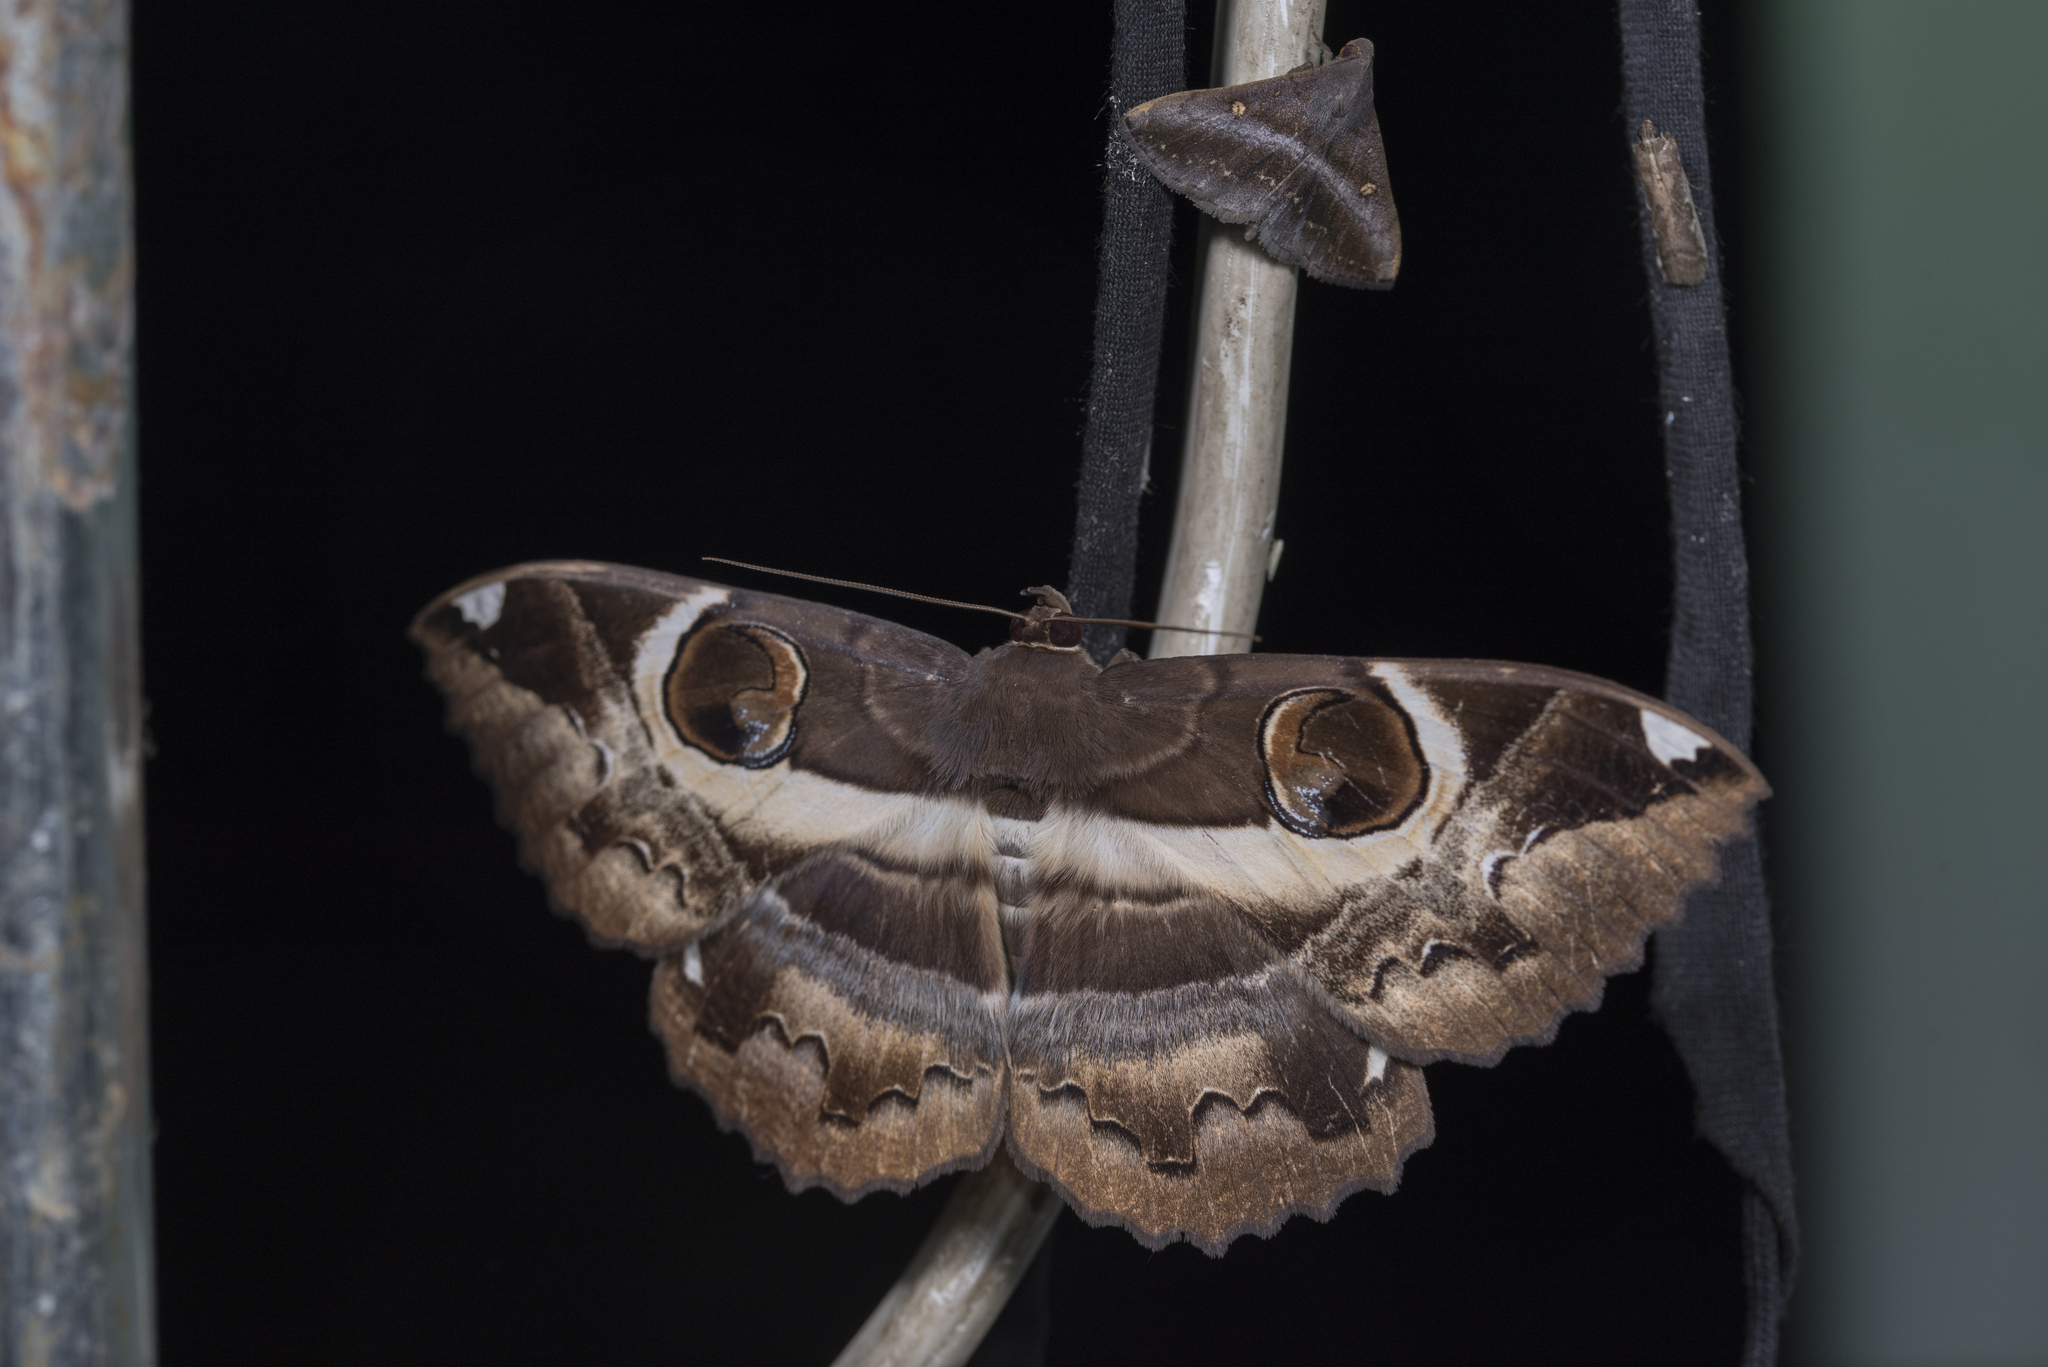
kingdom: Animalia
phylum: Arthropoda
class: Insecta
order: Lepidoptera
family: Erebidae
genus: Erebus
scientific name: Erebus ephesperis
